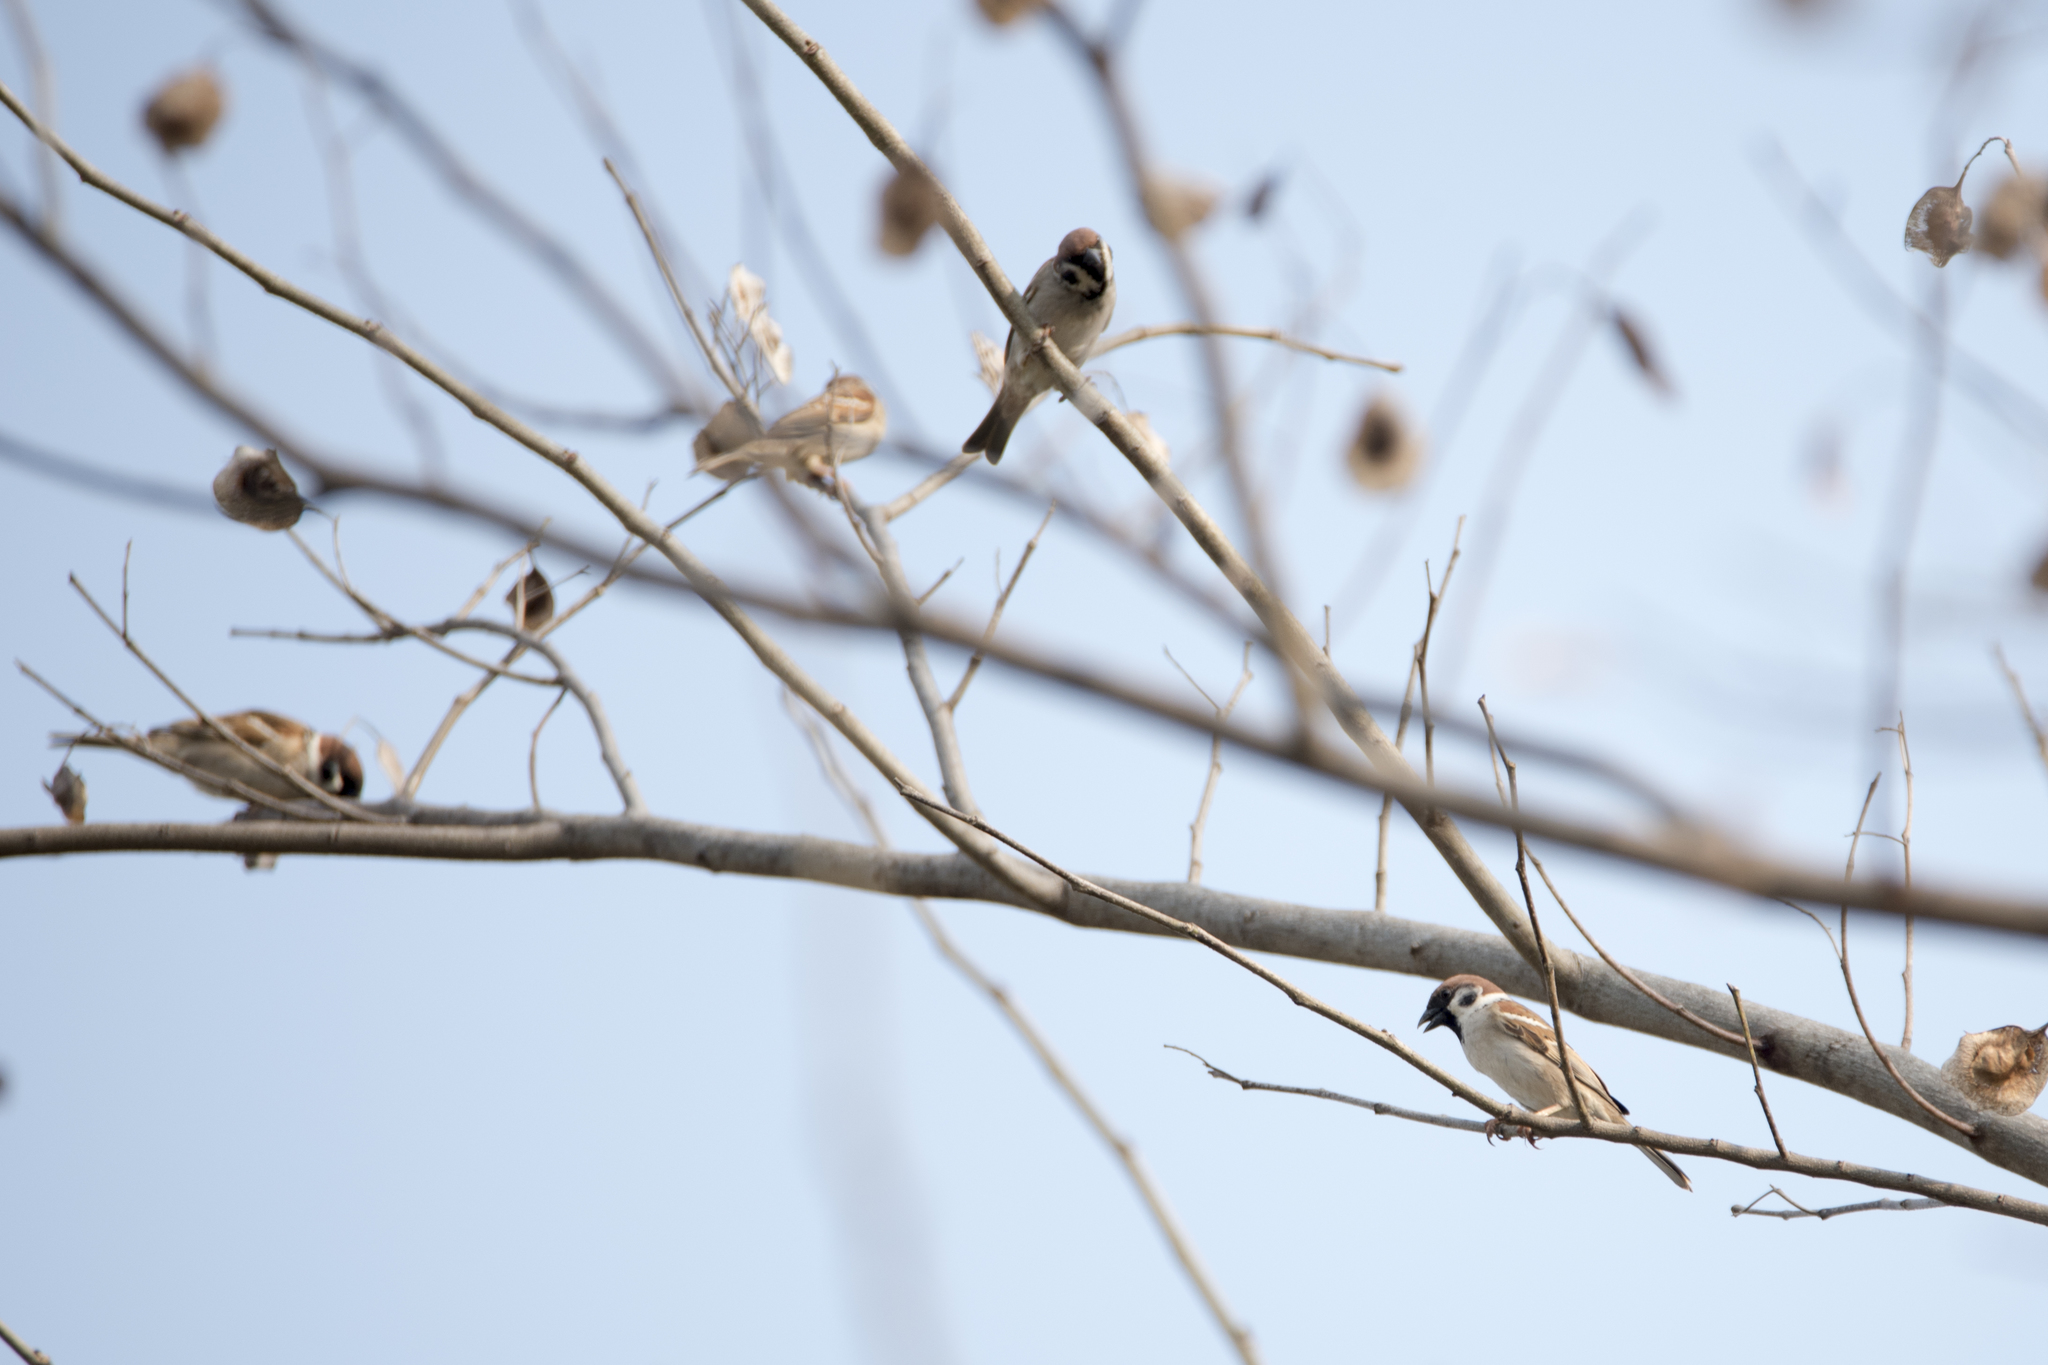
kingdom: Animalia
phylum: Chordata
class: Aves
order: Passeriformes
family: Passeridae
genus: Passer
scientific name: Passer montanus
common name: Eurasian tree sparrow
